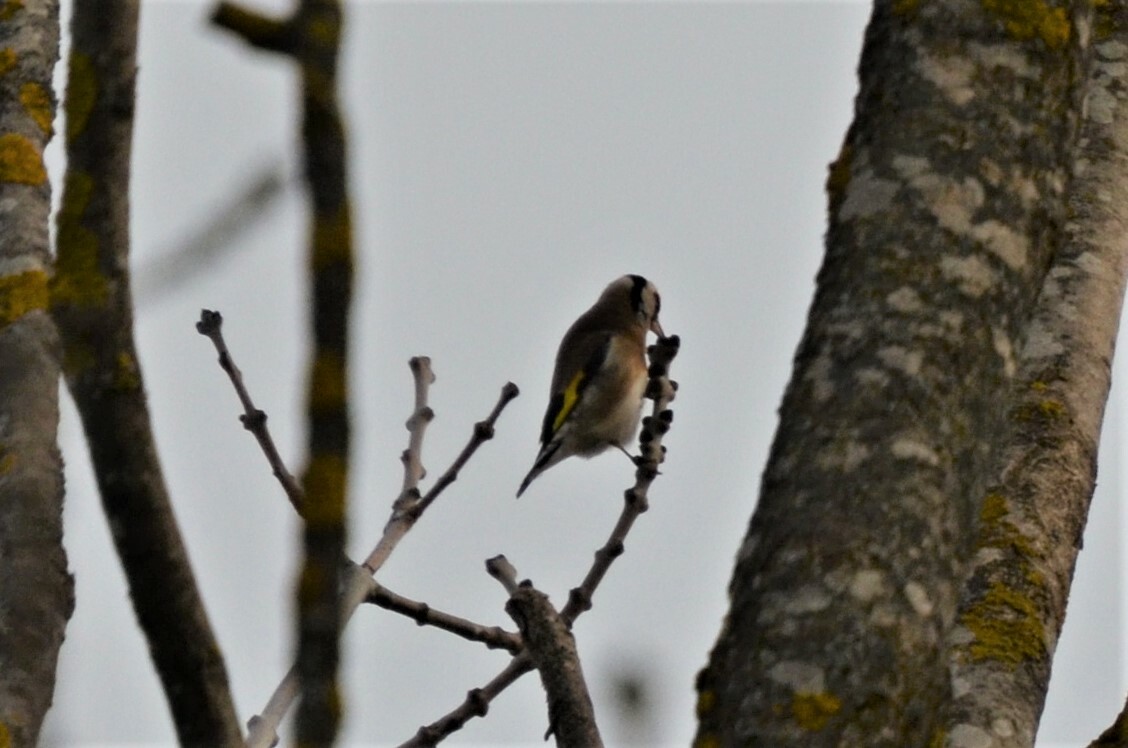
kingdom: Animalia
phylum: Chordata
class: Aves
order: Passeriformes
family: Fringillidae
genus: Carduelis
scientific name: Carduelis carduelis
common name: European goldfinch
